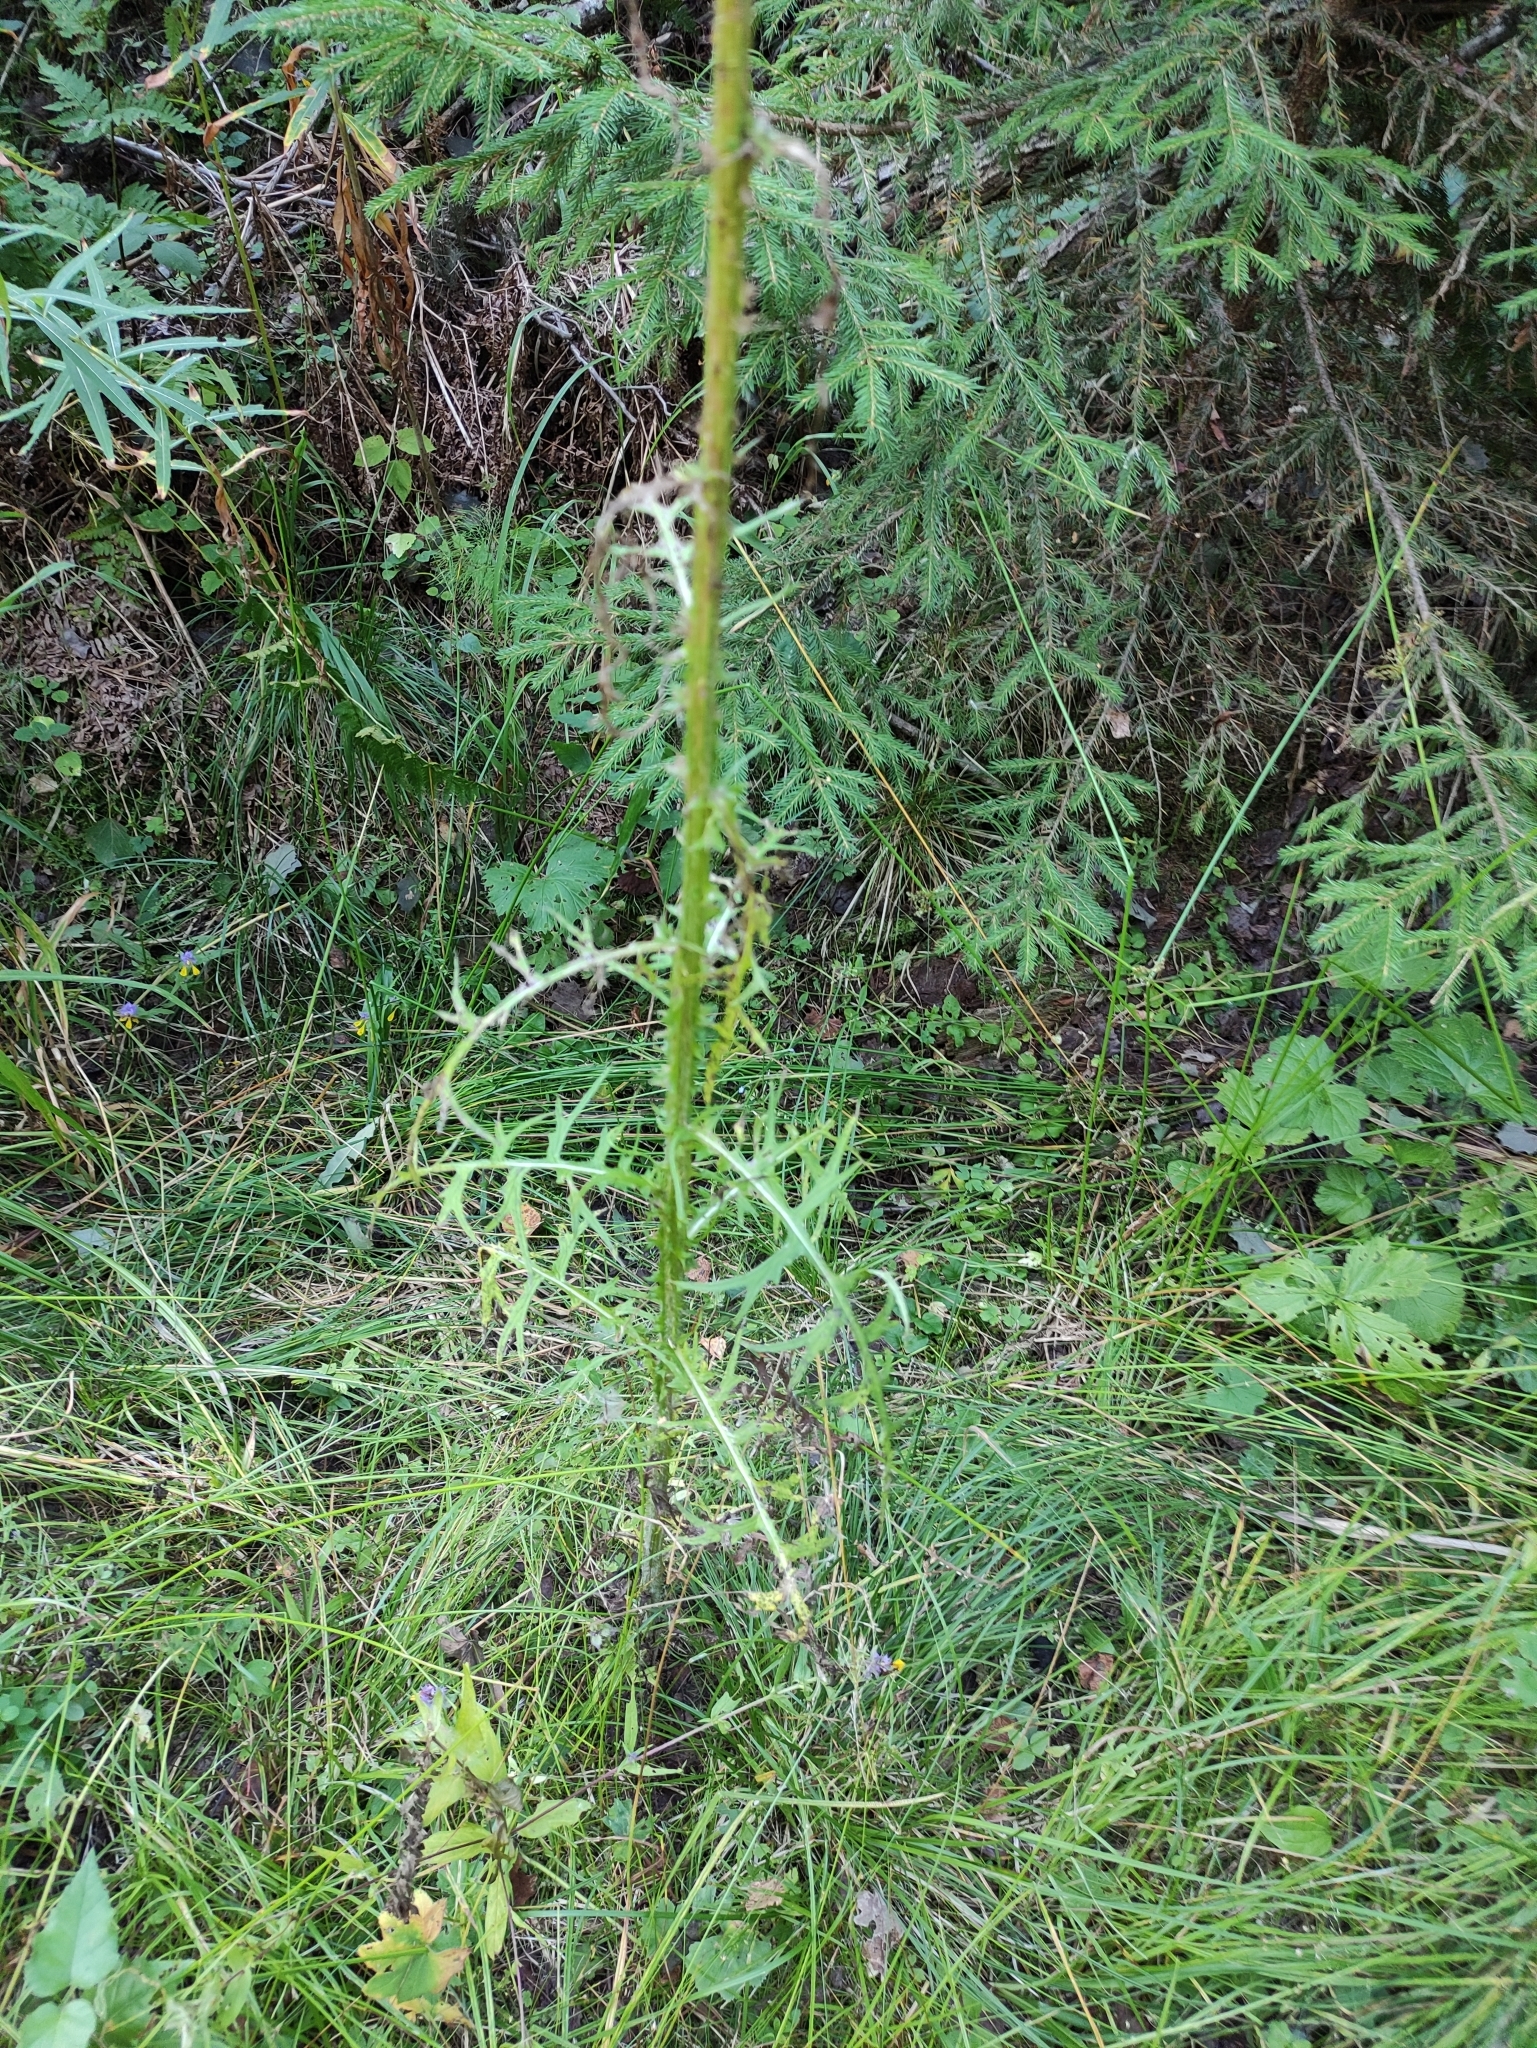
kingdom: Plantae
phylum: Tracheophyta
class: Magnoliopsida
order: Asterales
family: Asteraceae
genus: Cirsium
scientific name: Cirsium palustre
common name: Marsh thistle
